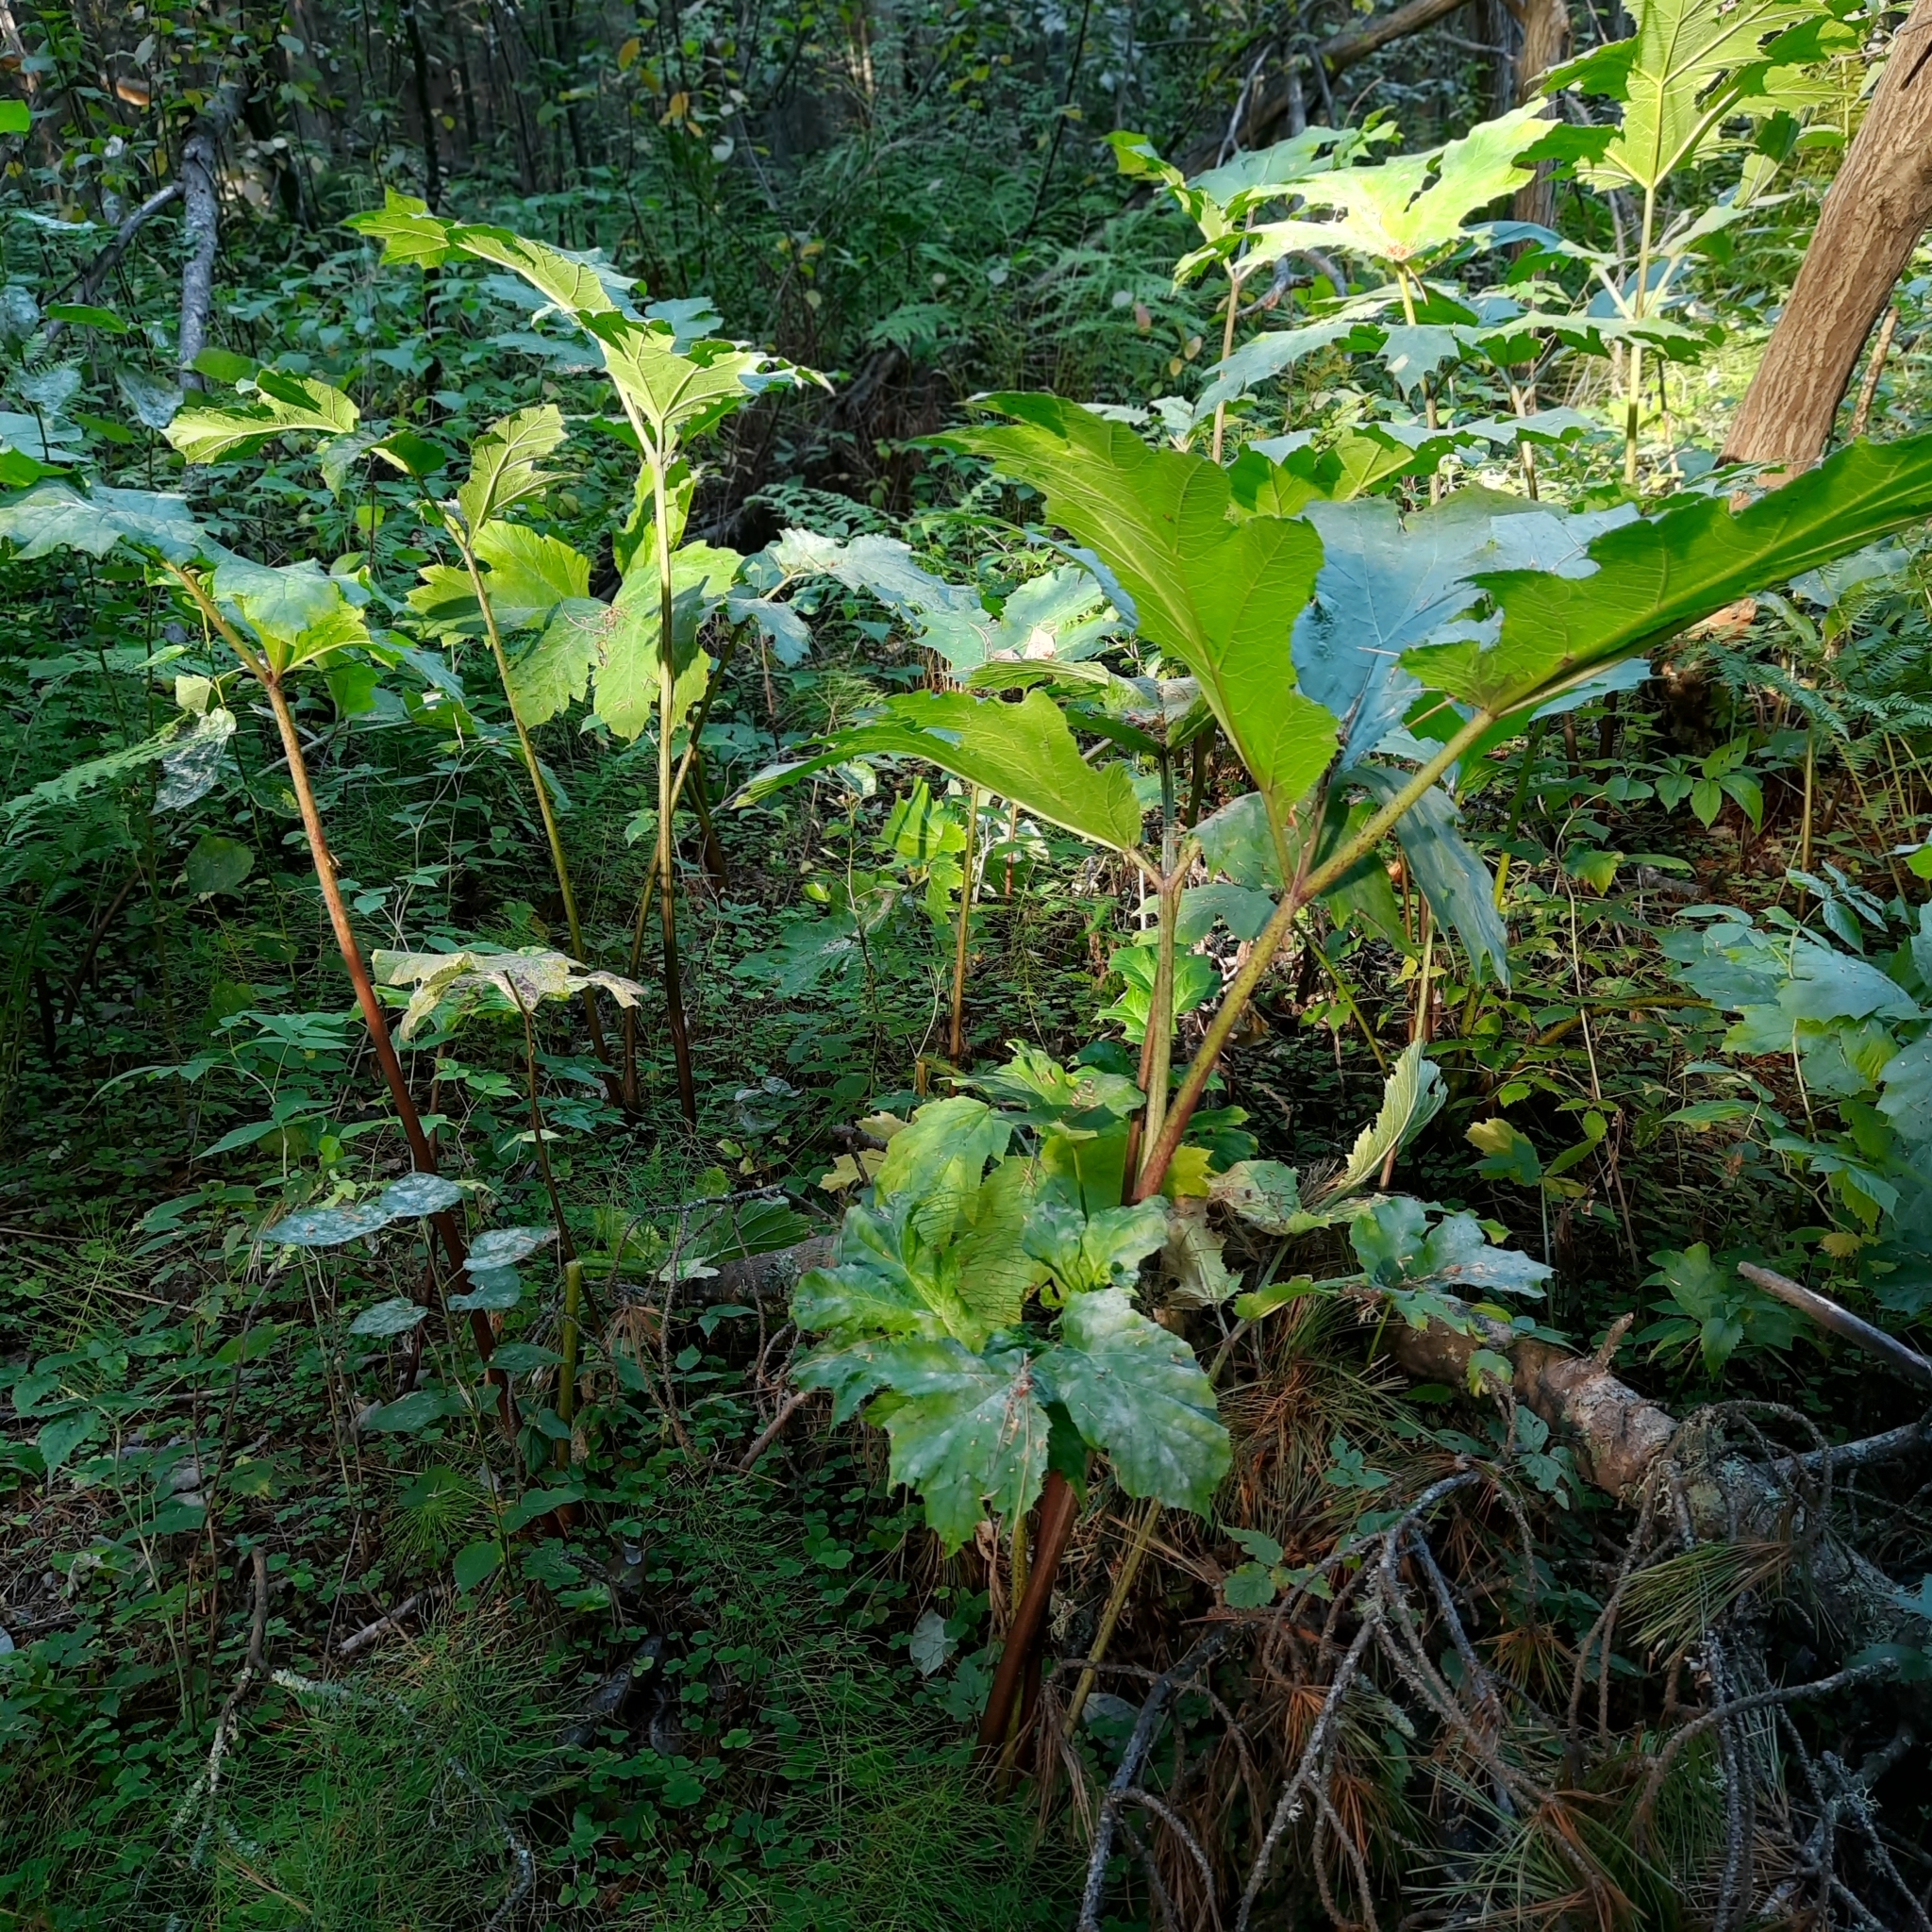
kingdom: Plantae
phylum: Tracheophyta
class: Magnoliopsida
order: Apiales
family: Apiaceae
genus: Heracleum
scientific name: Heracleum sosnowskyi
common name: Sosnowsky's hogweed
